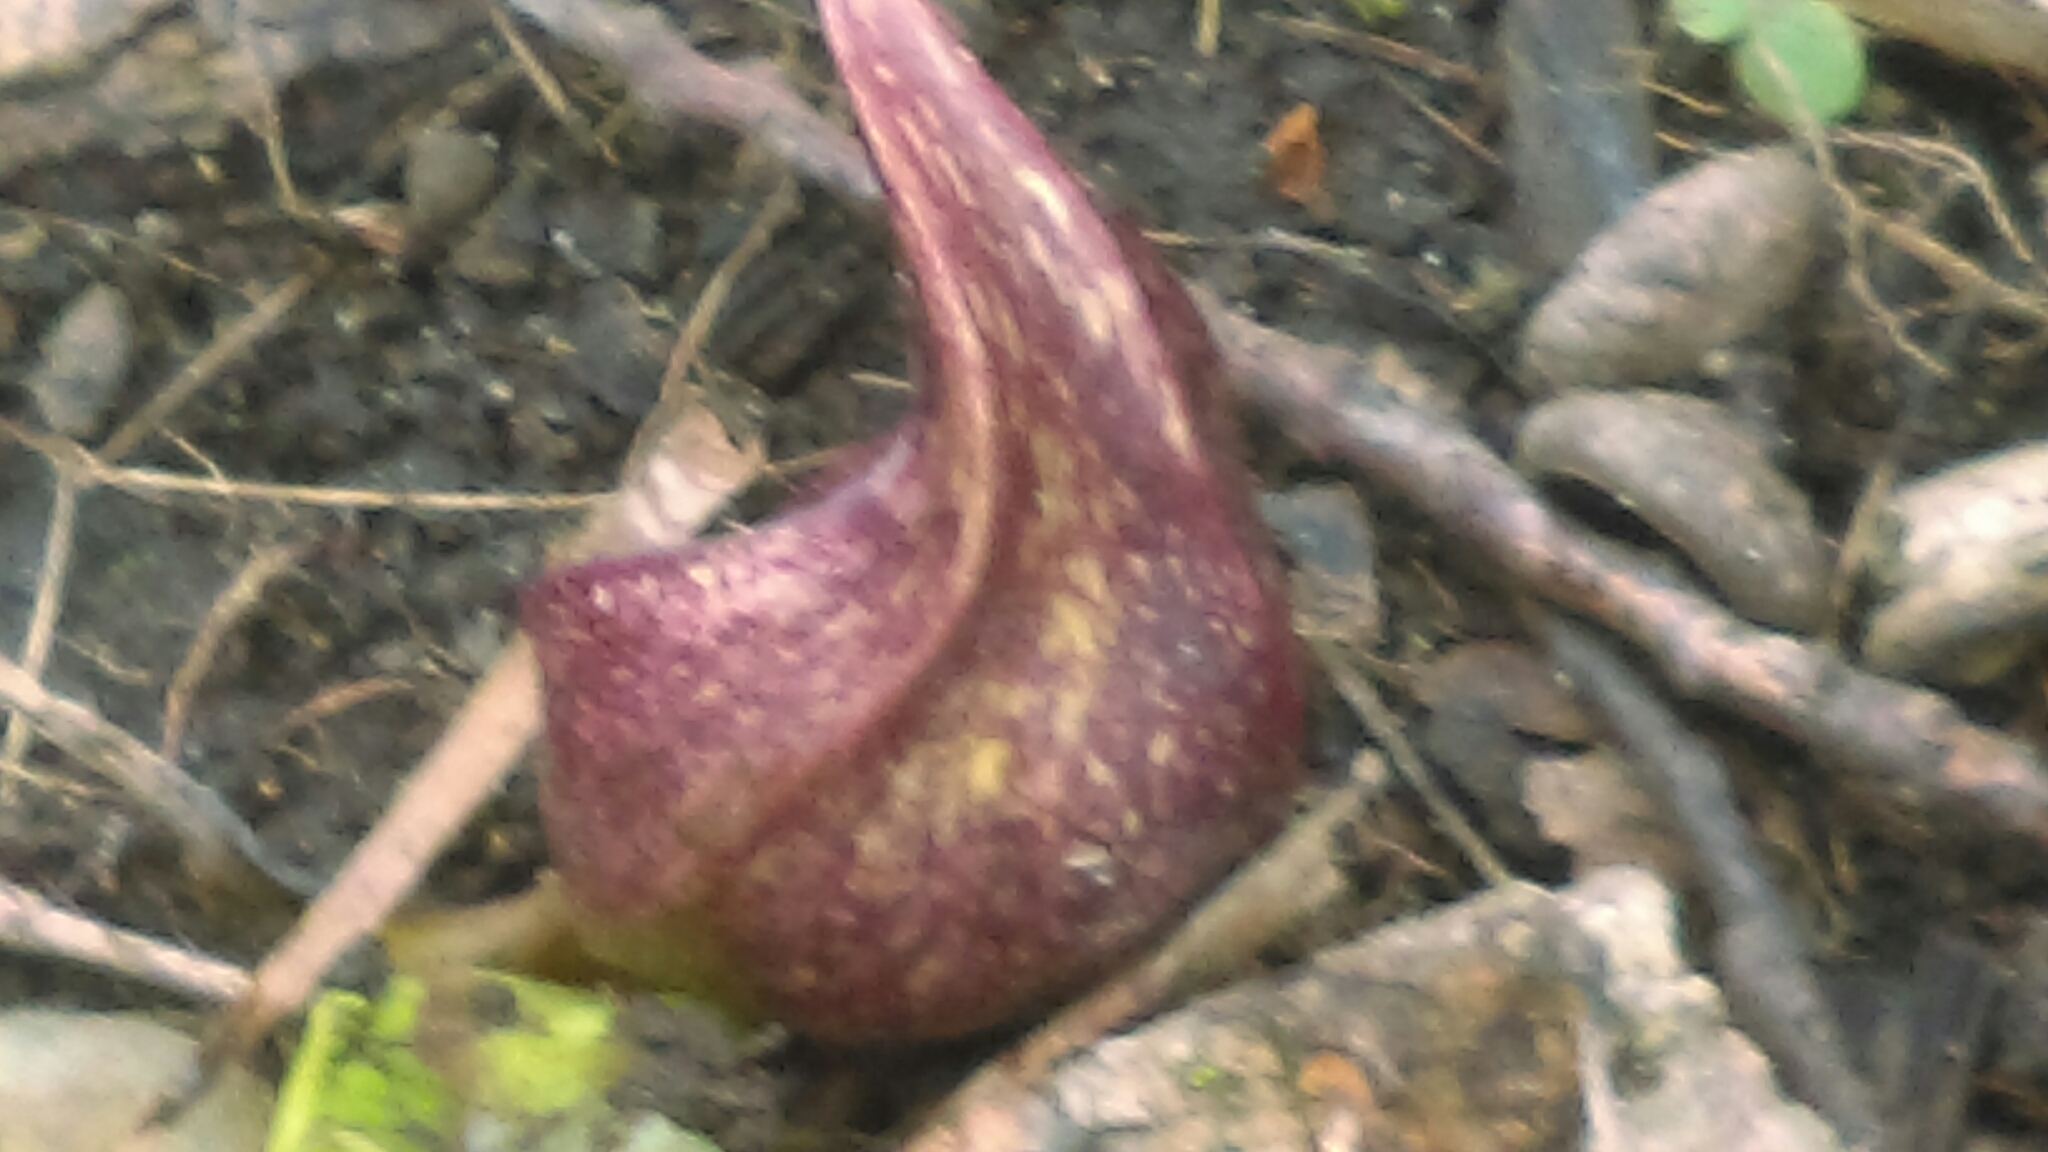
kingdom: Plantae
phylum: Tracheophyta
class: Liliopsida
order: Alismatales
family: Araceae
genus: Symplocarpus
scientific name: Symplocarpus foetidus
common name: Eastern skunk cabbage
